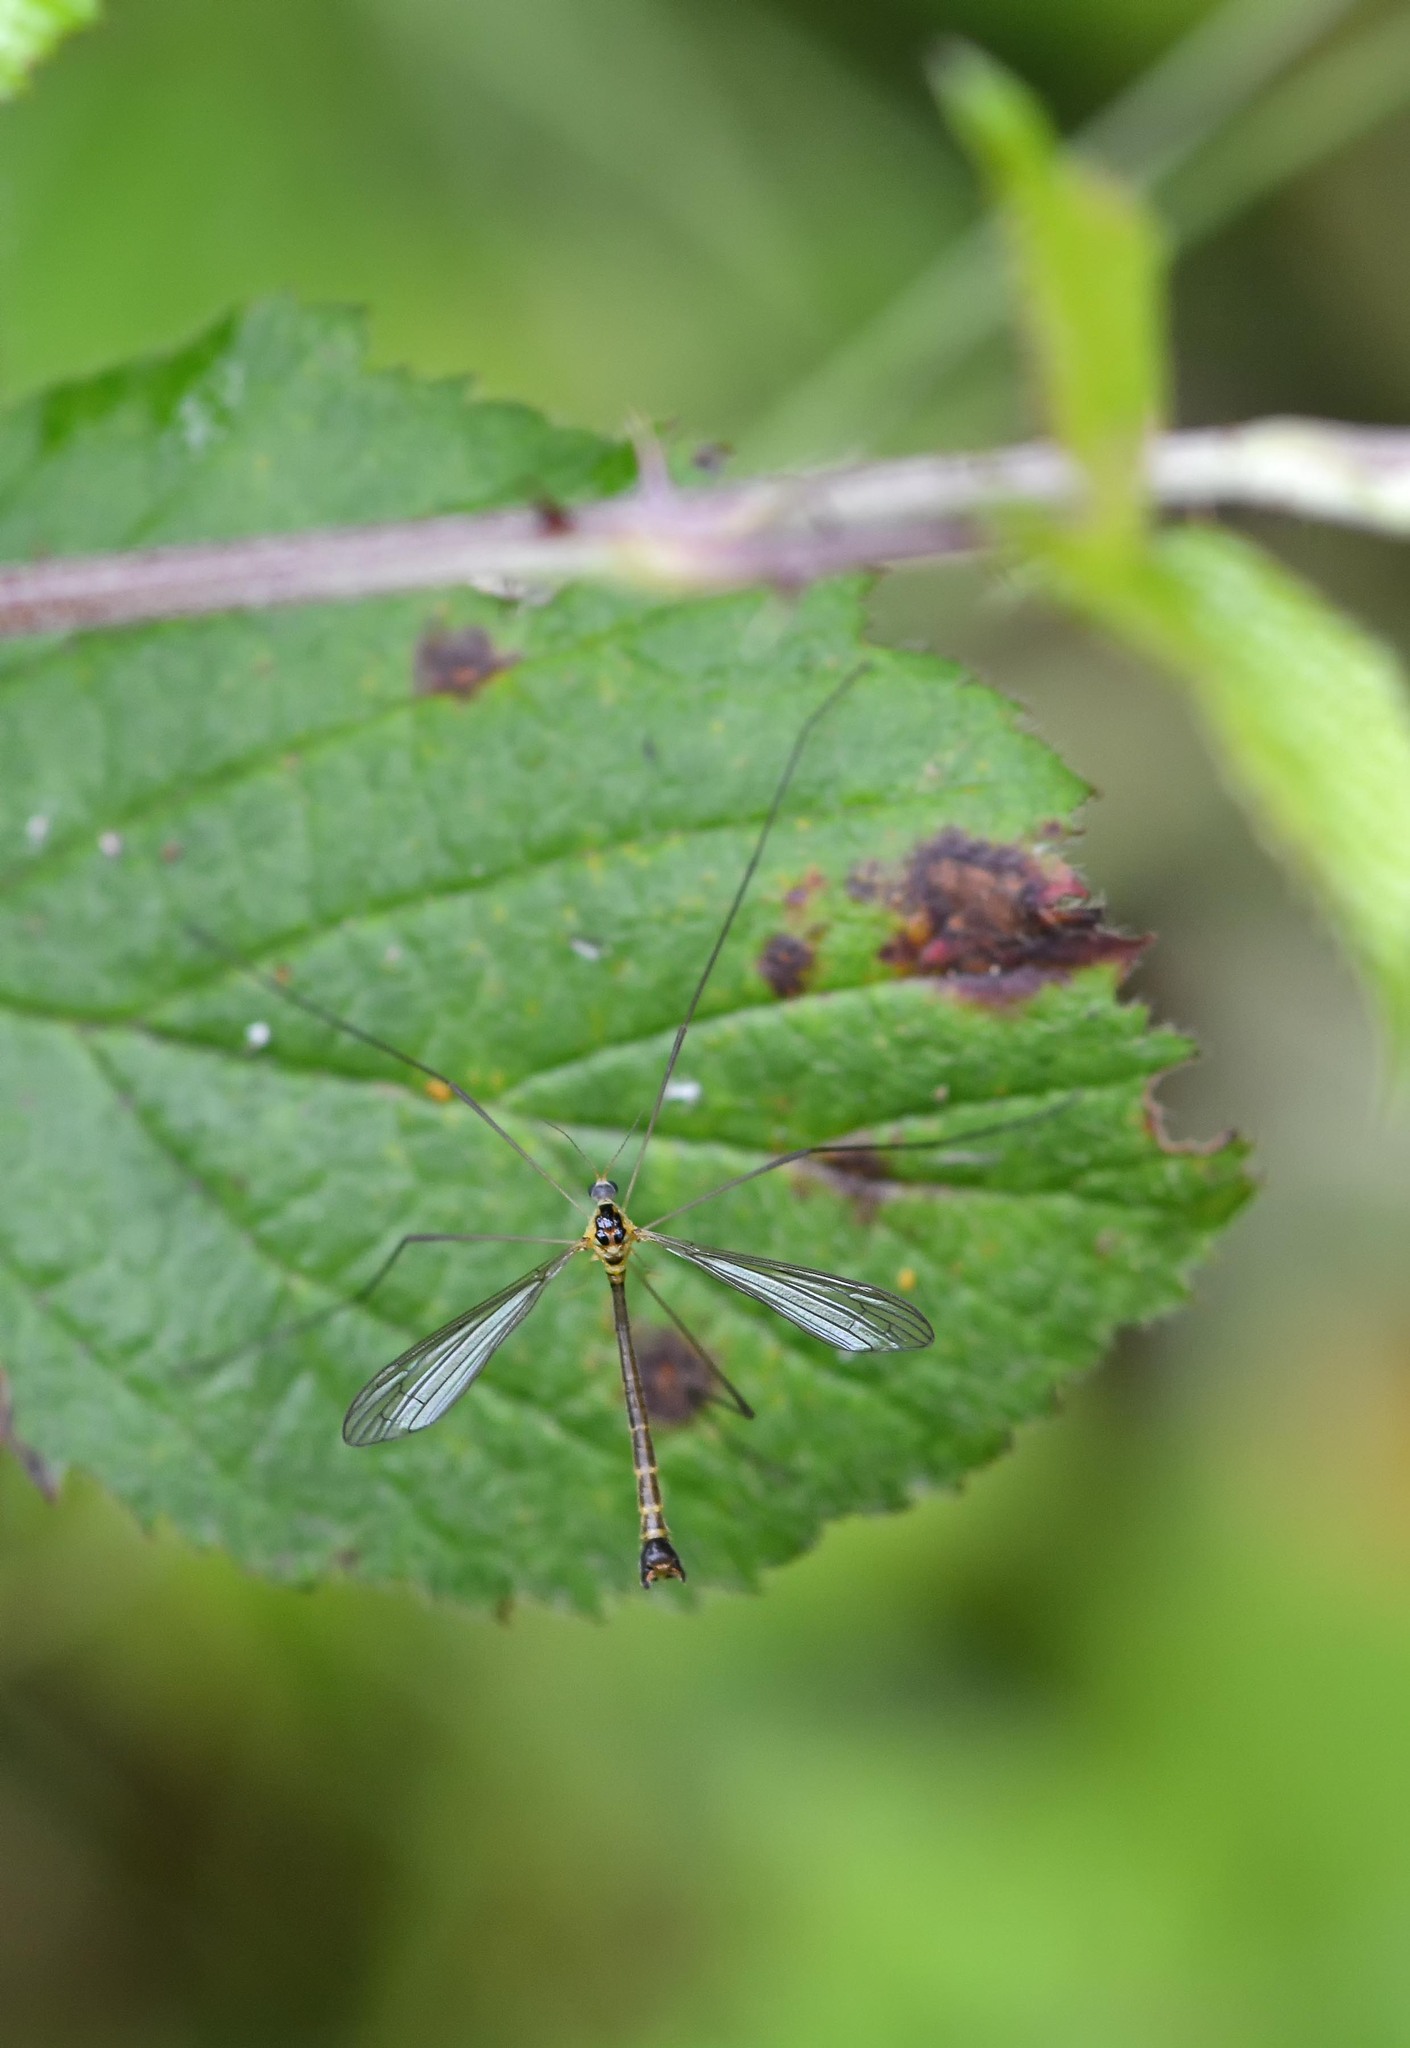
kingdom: Animalia
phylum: Arthropoda
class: Insecta
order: Diptera
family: Cylindrotomidae
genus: Diogma
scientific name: Diogma glabrata
